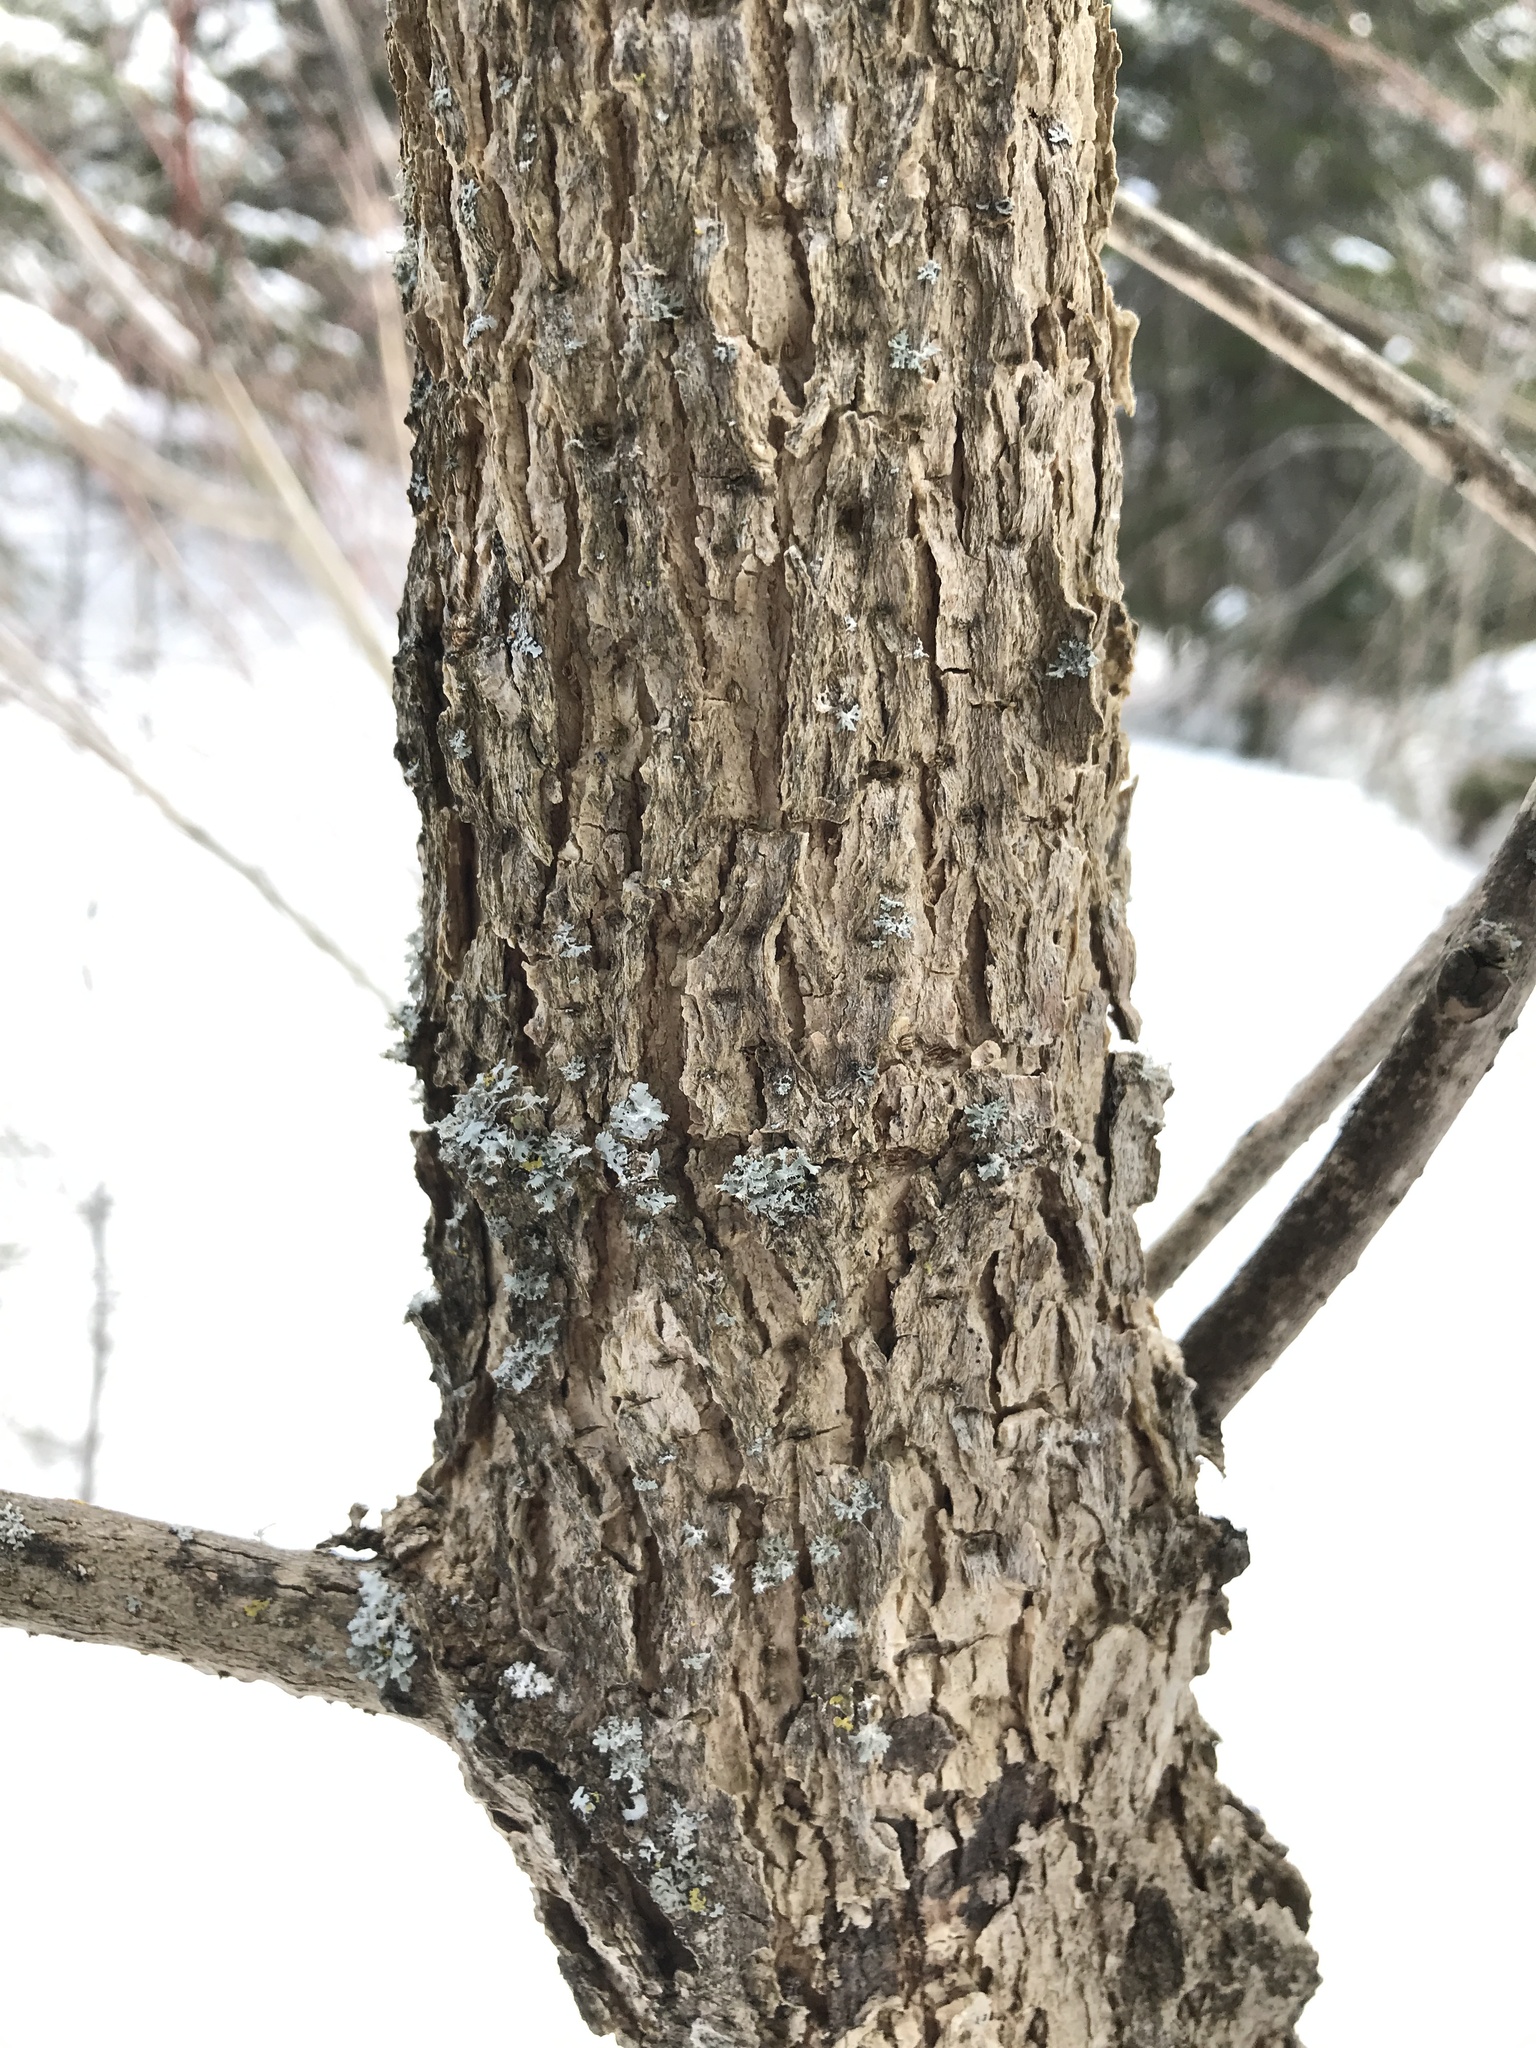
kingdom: Plantae
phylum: Tracheophyta
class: Magnoliopsida
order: Lamiales
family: Oleaceae
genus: Fraxinus
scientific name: Fraxinus nigra
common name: Black ash
